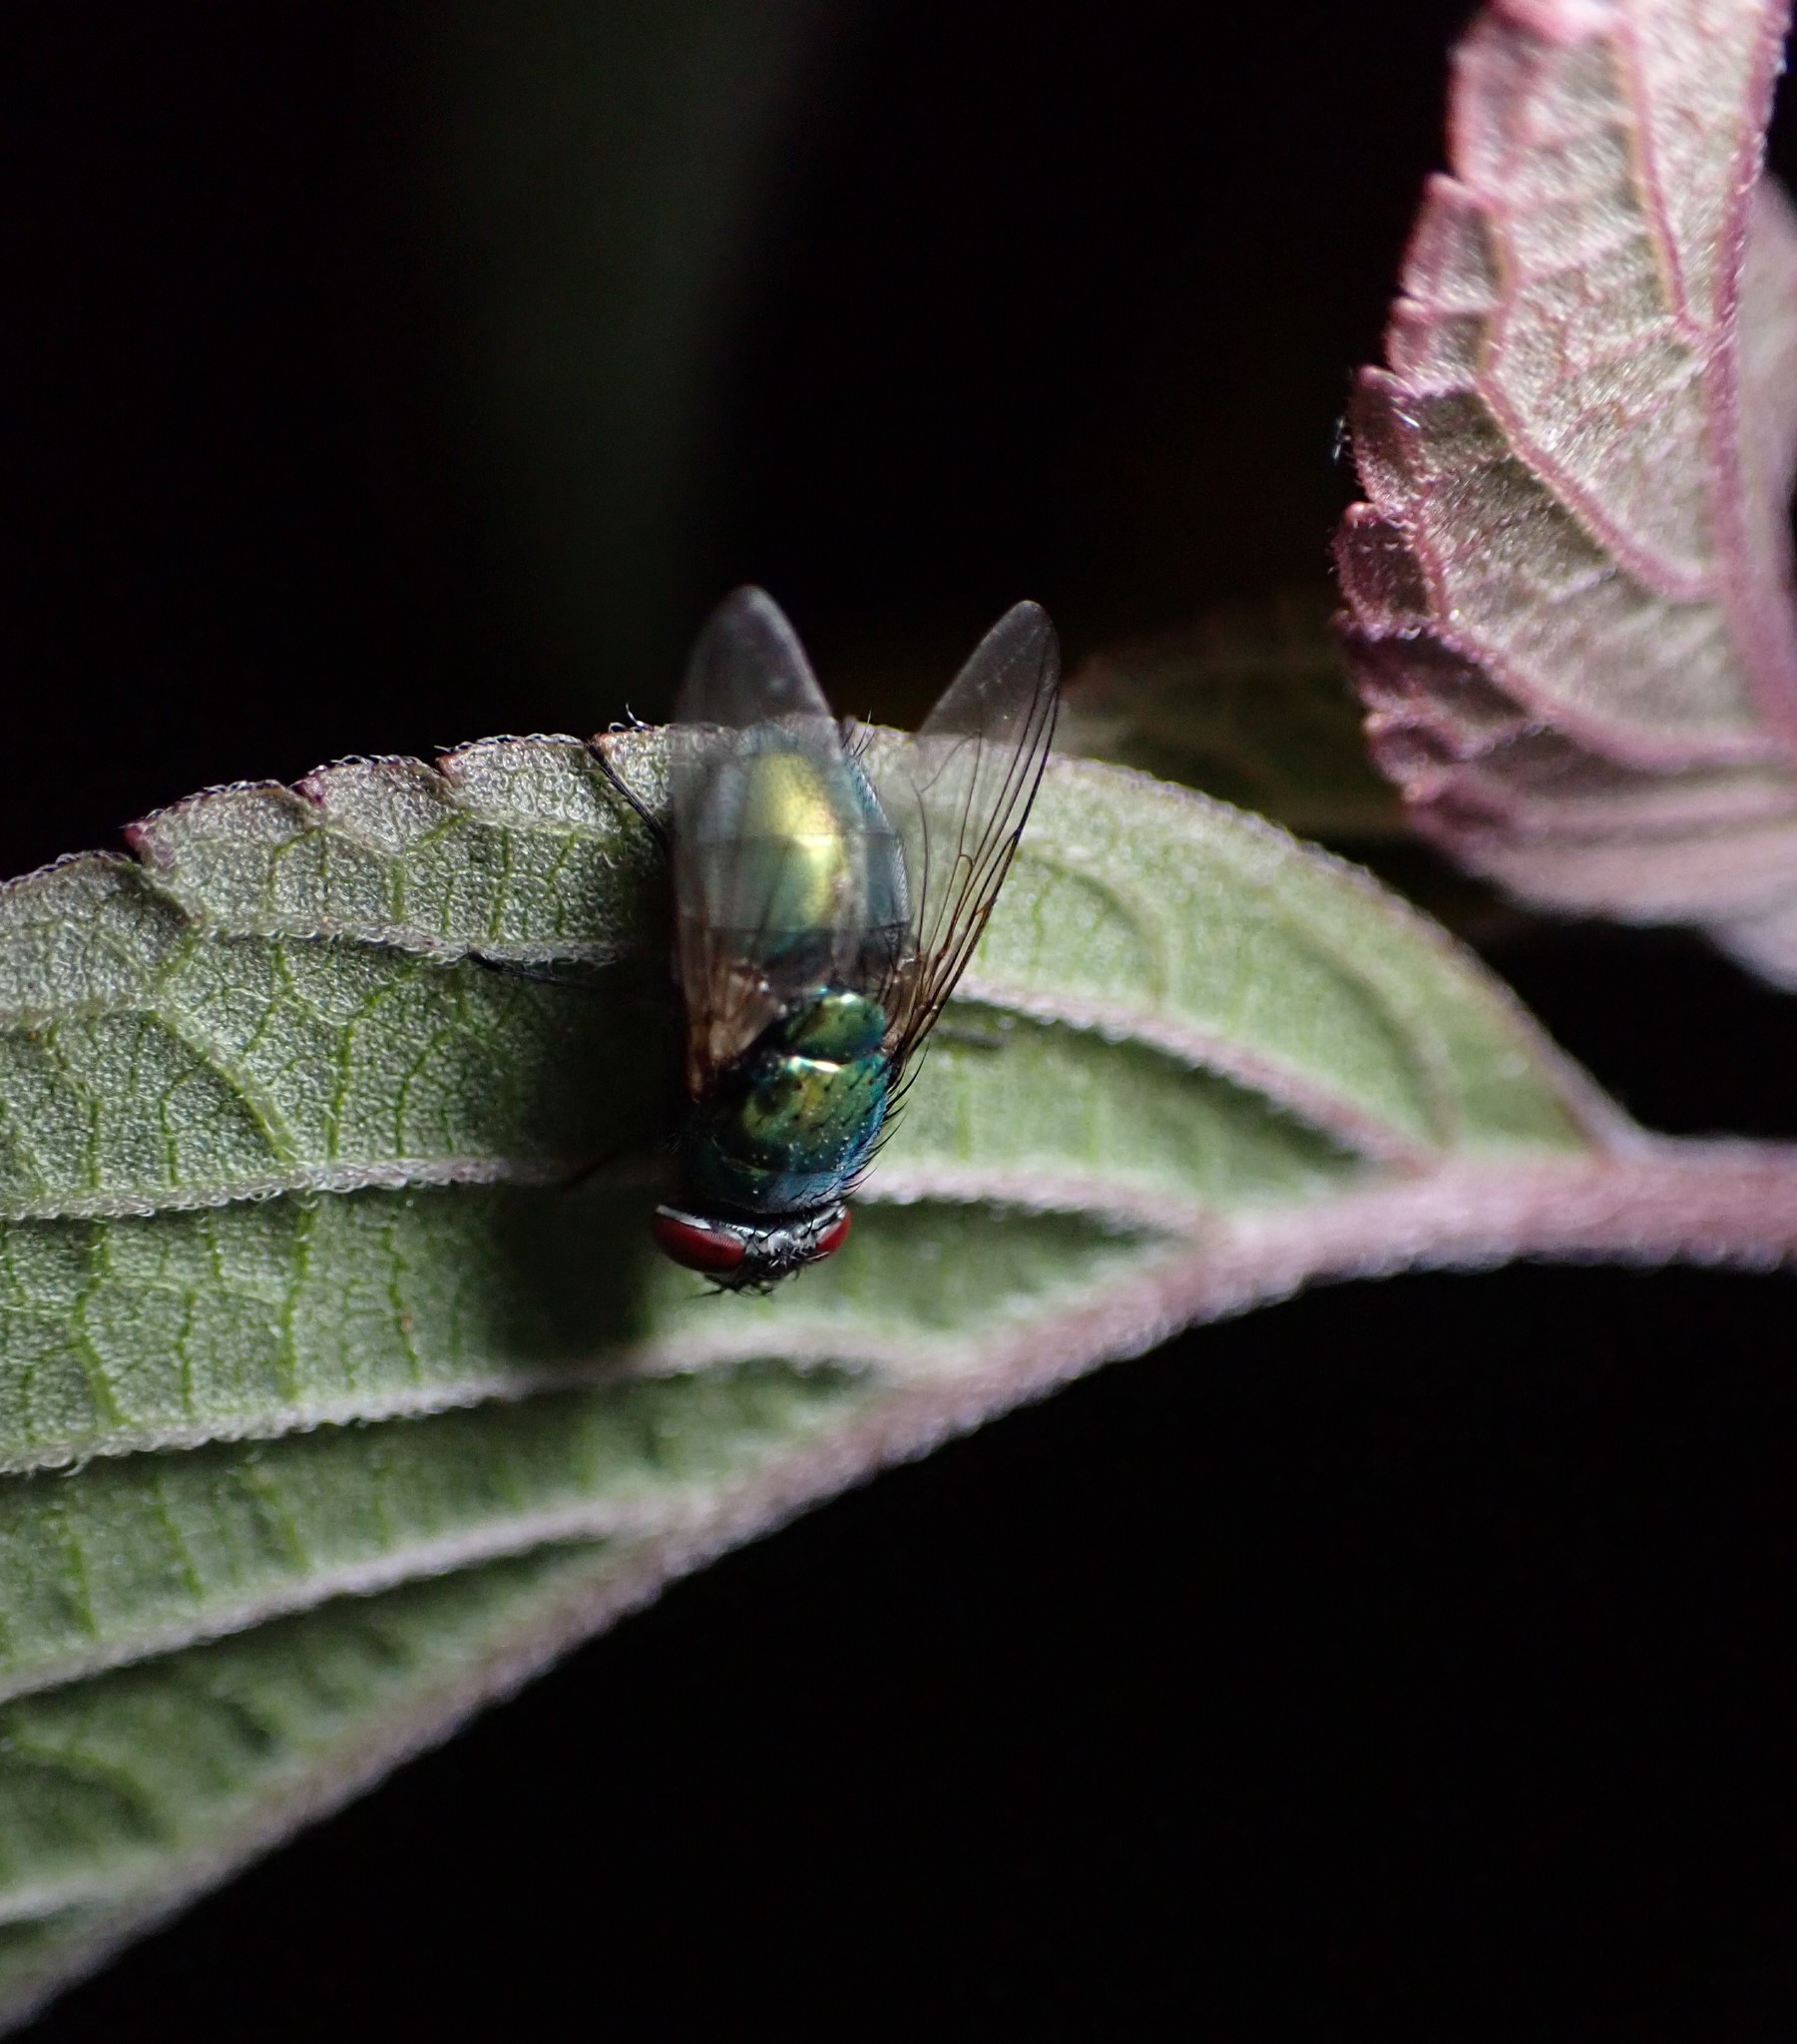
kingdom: Animalia
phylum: Arthropoda
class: Insecta
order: Diptera
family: Calliphoridae
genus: Lucilia
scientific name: Lucilia sericata
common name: Blow fly
